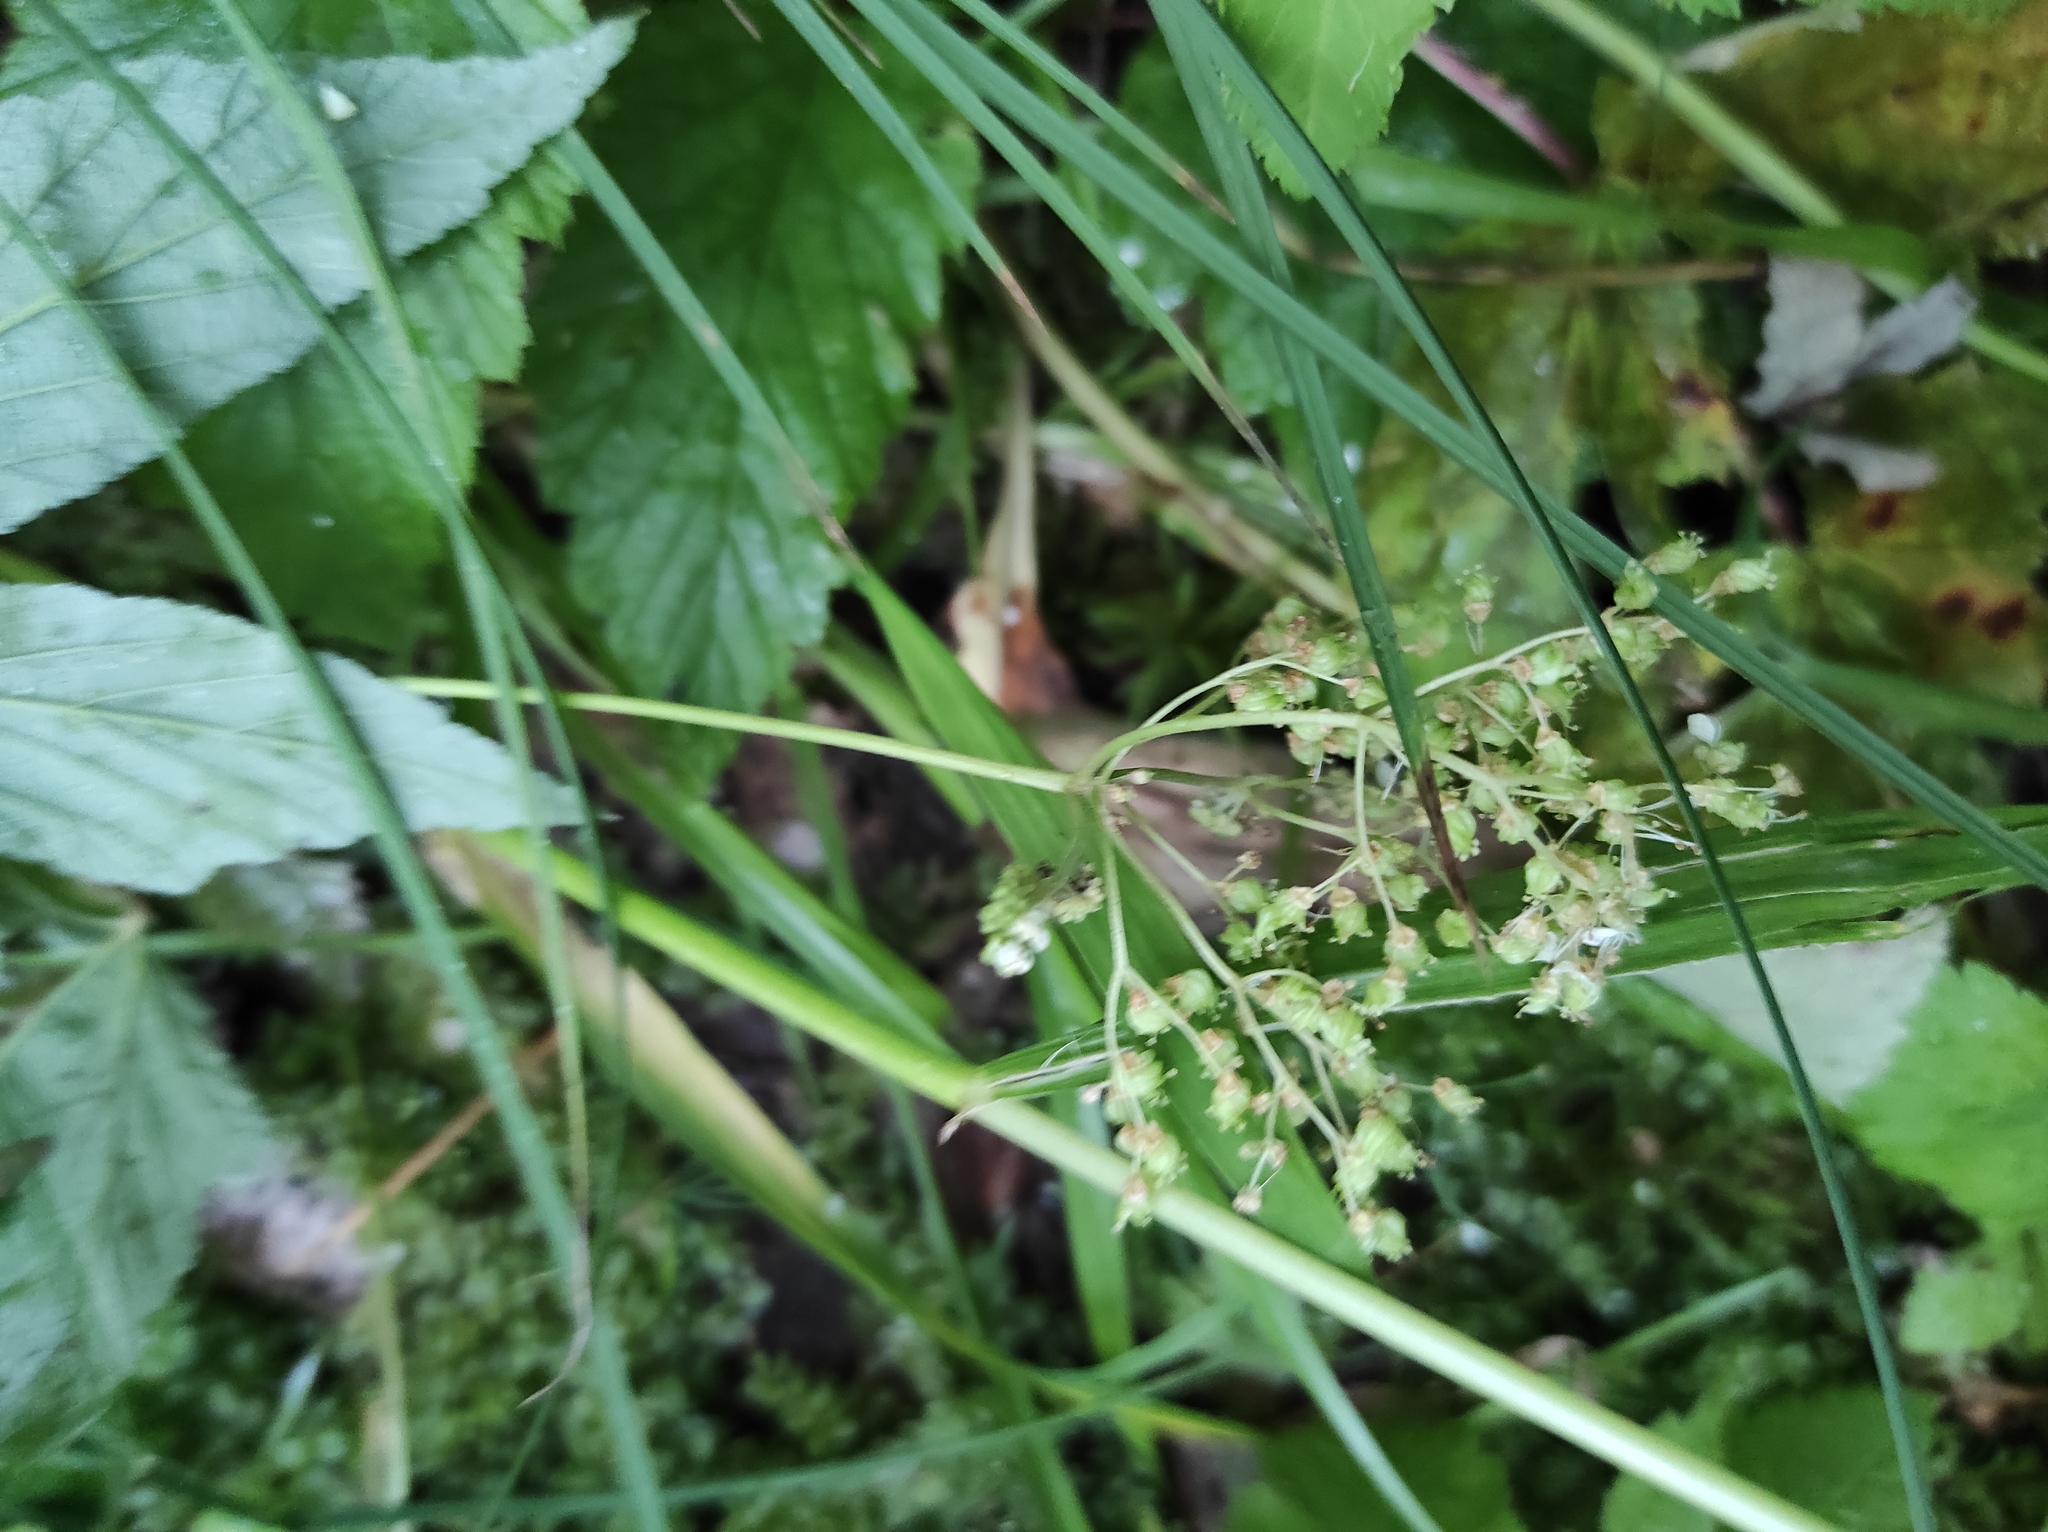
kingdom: Plantae
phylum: Tracheophyta
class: Magnoliopsida
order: Rosales
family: Rosaceae
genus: Filipendula
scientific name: Filipendula ulmaria
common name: Meadowsweet
